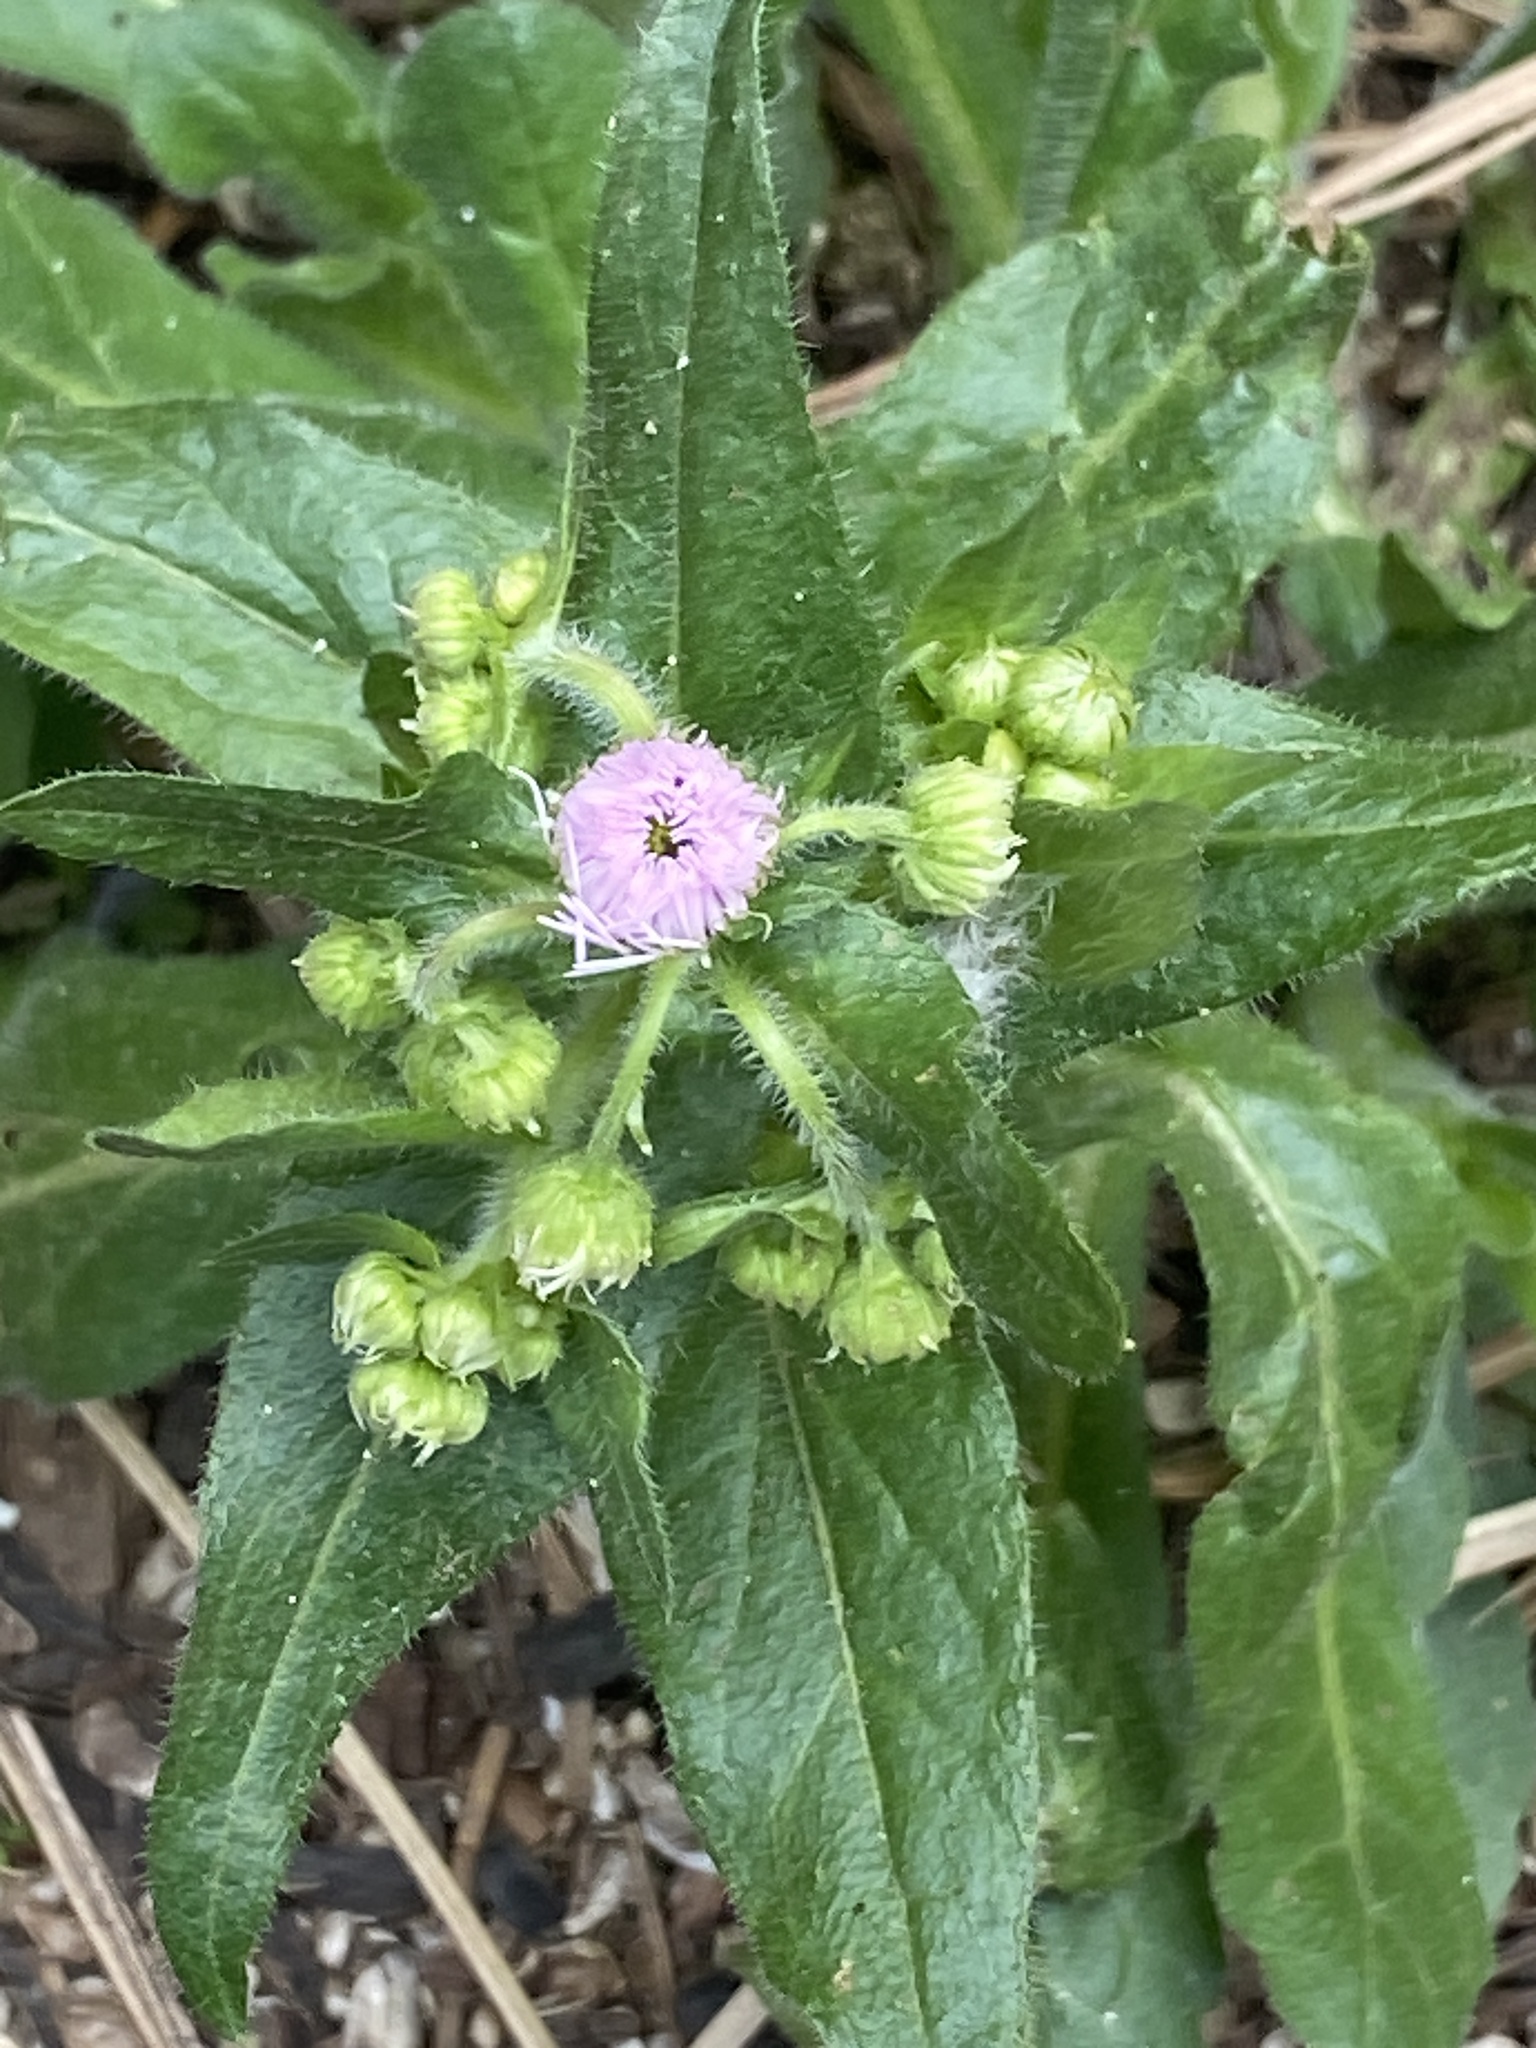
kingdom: Plantae
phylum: Tracheophyta
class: Magnoliopsida
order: Asterales
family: Asteraceae
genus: Erigeron
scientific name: Erigeron philadelphicus
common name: Robin's-plantain
